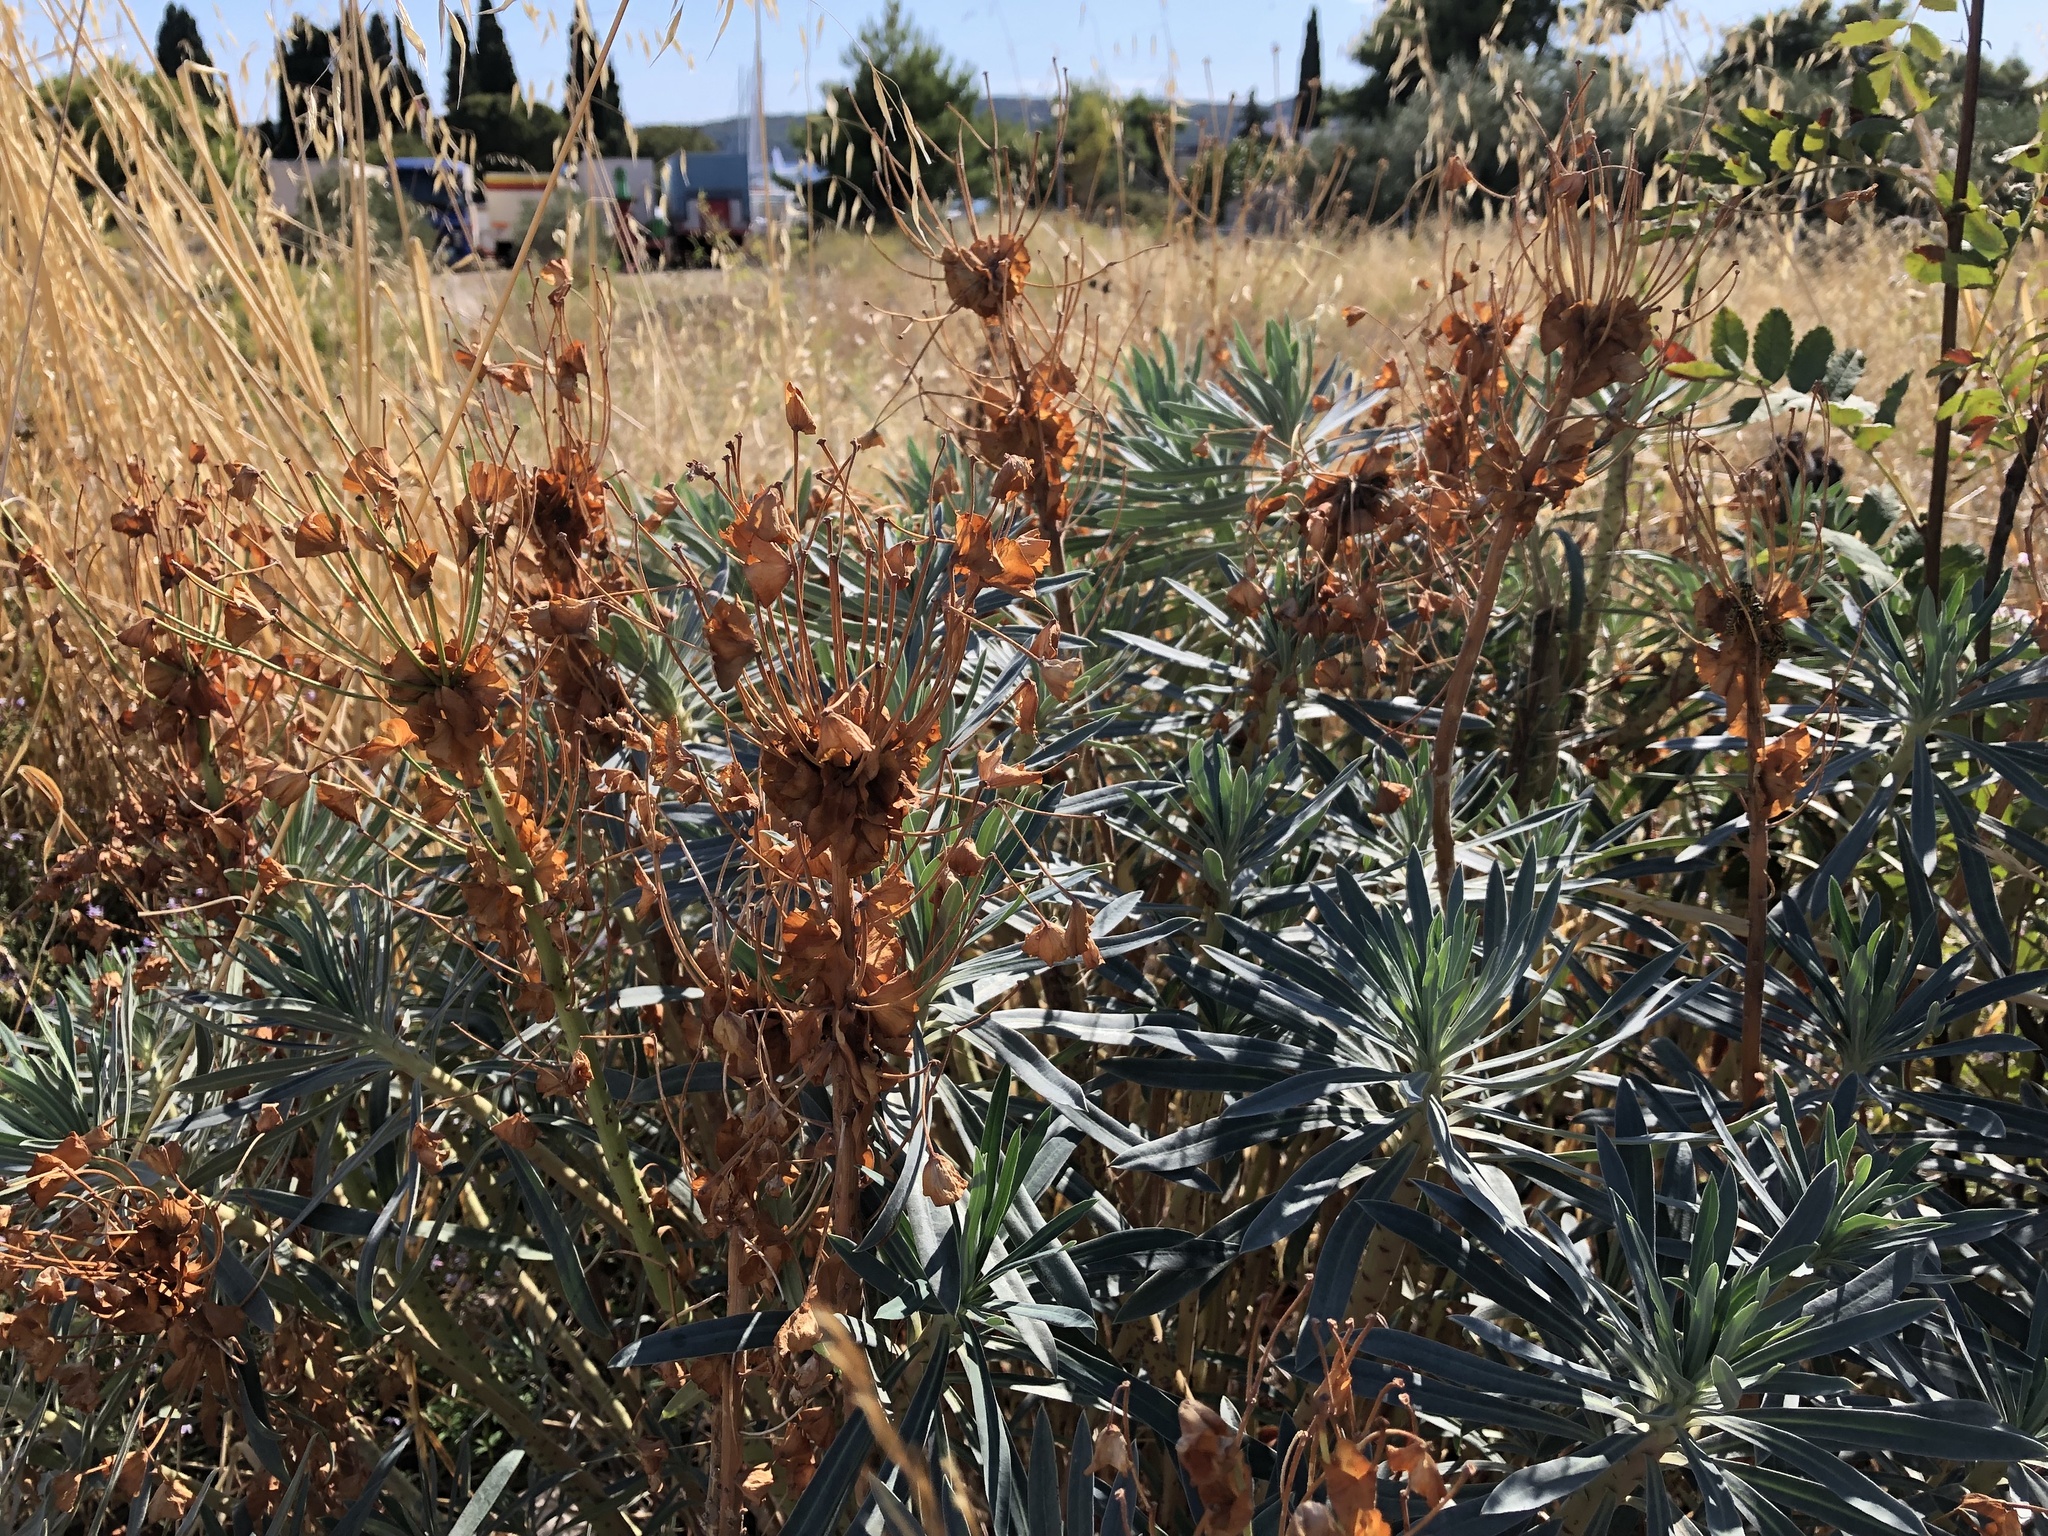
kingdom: Plantae
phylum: Tracheophyta
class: Magnoliopsida
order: Malpighiales
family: Euphorbiaceae
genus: Euphorbia
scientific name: Euphorbia characias
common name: Mediterranean spurge
